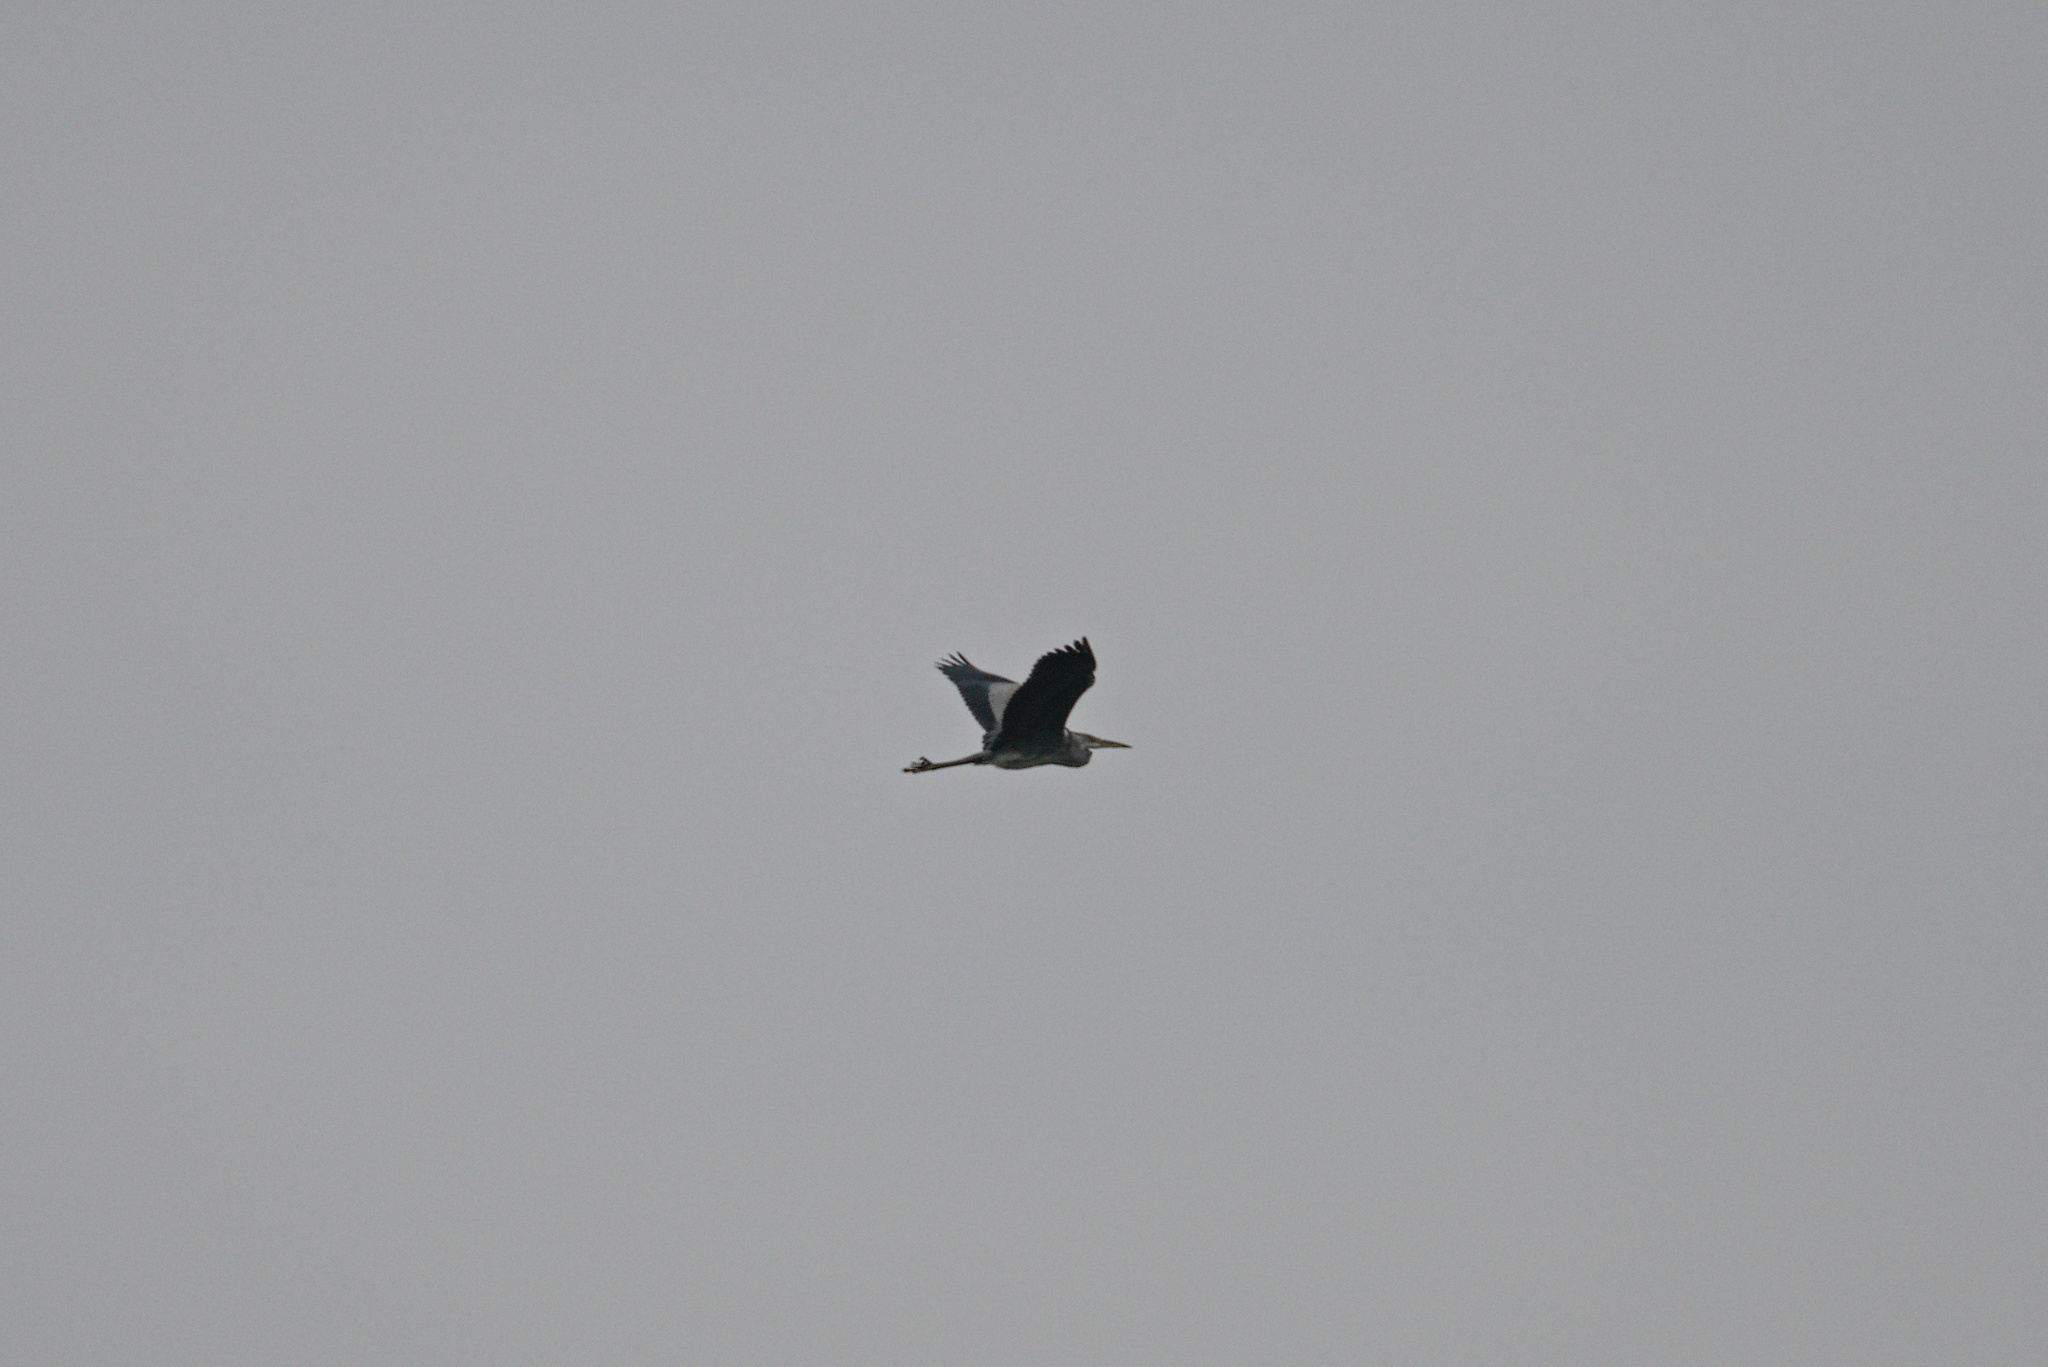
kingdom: Animalia
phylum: Chordata
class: Aves
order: Pelecaniformes
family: Ardeidae
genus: Ardea
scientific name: Ardea cinerea
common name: Grey heron
